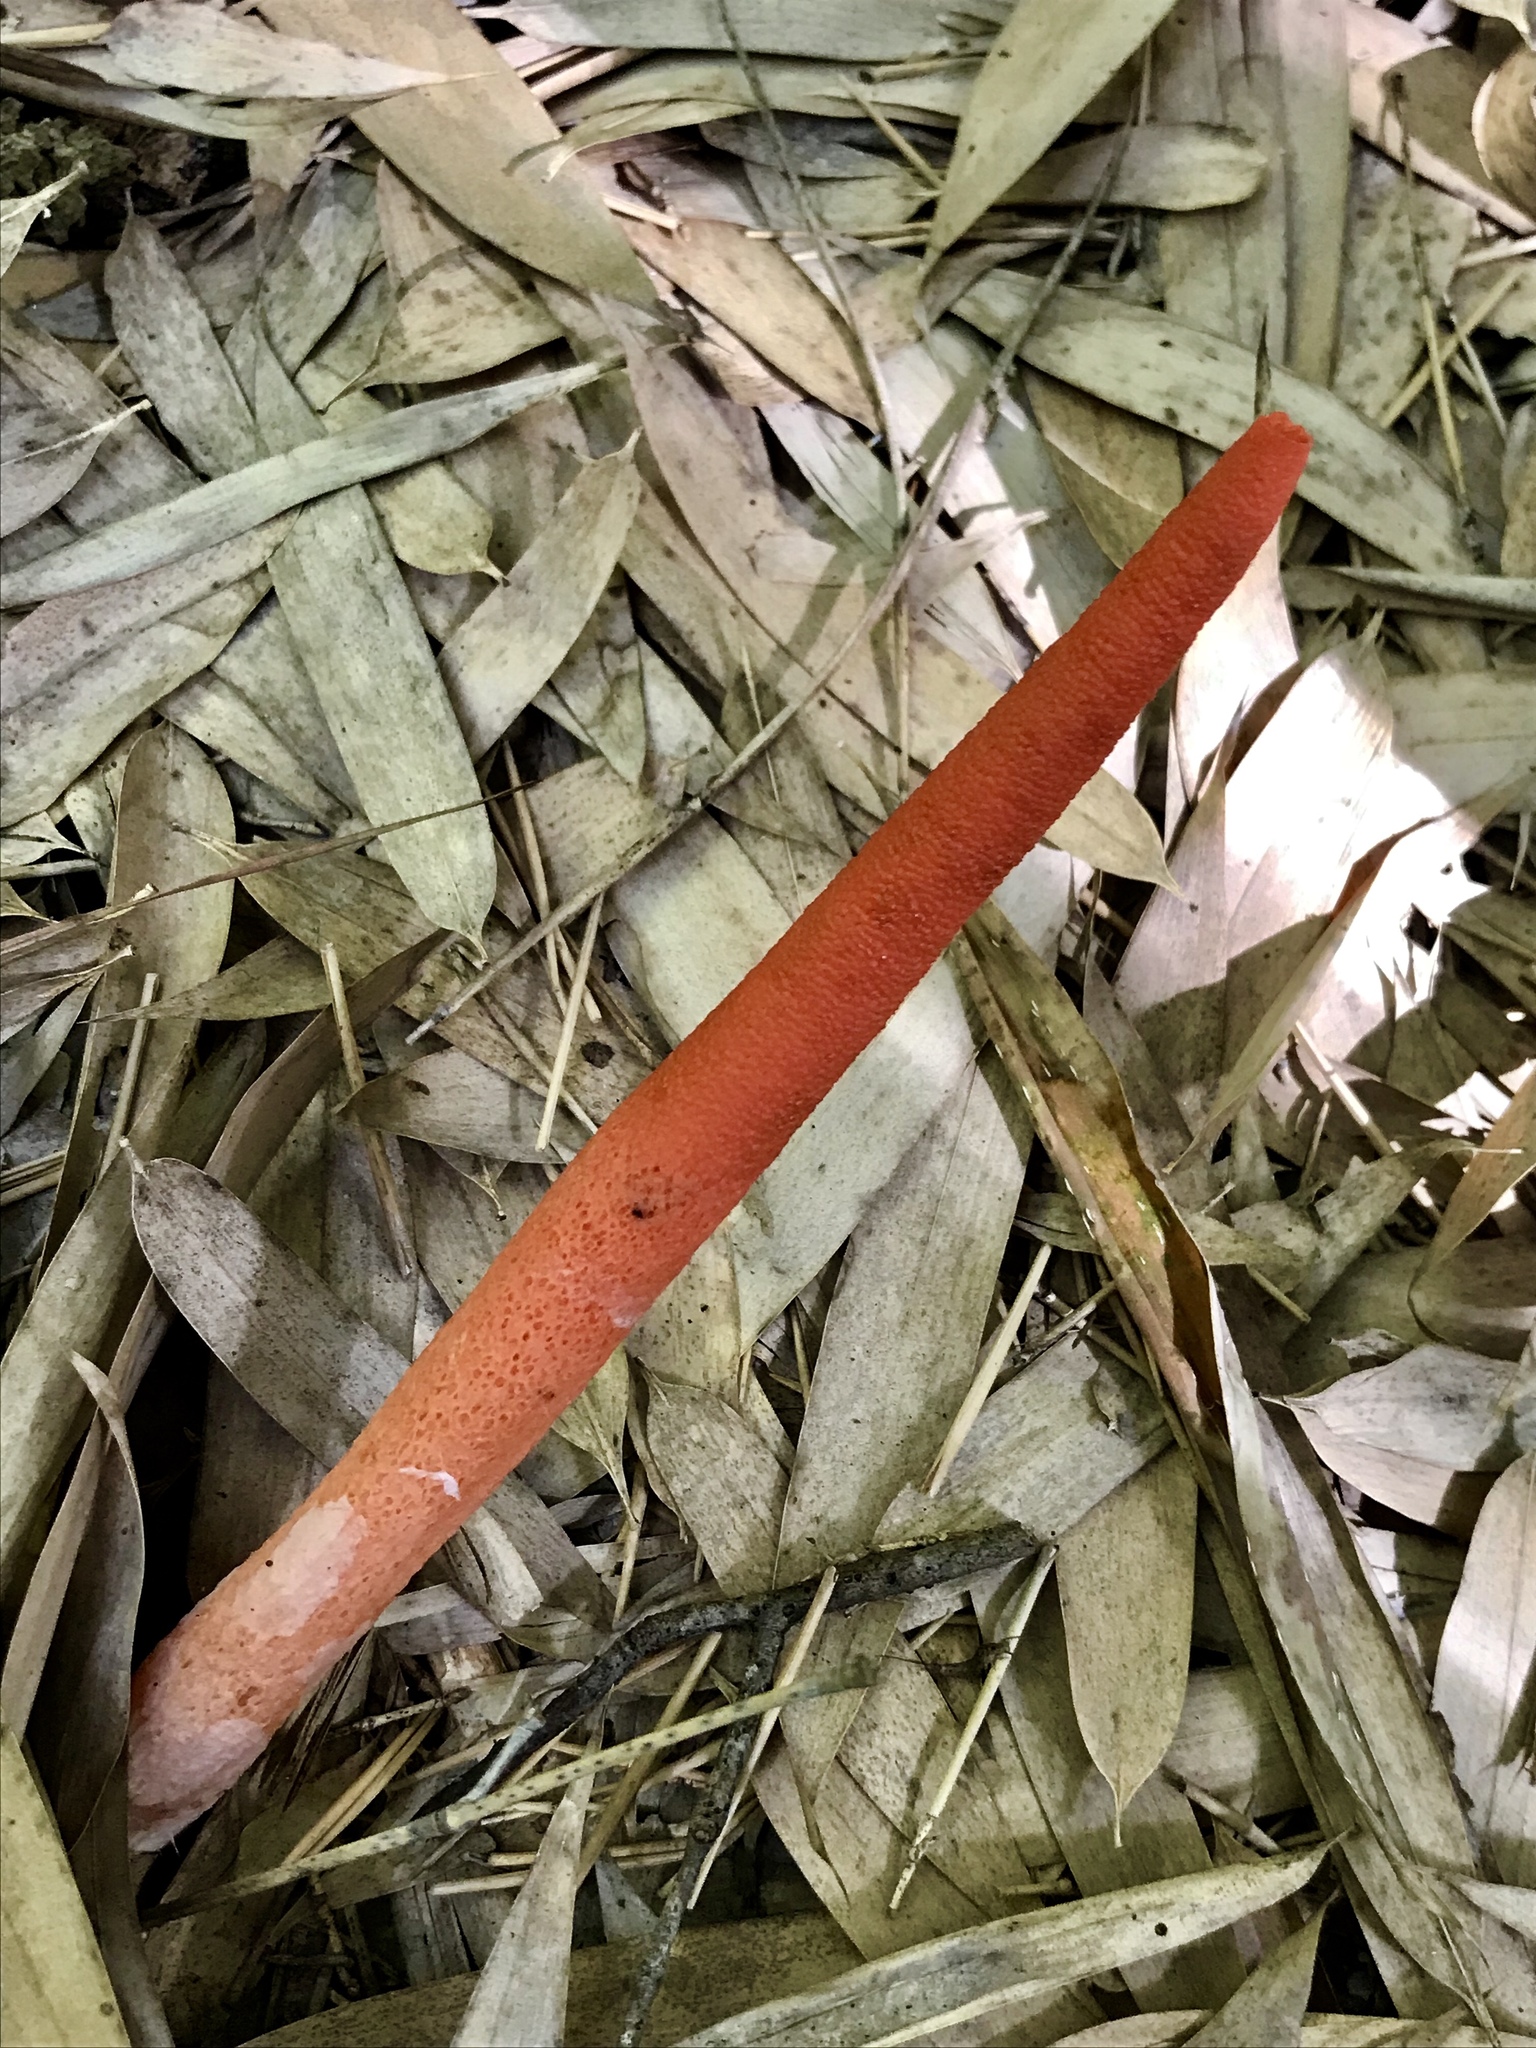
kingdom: Fungi
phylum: Basidiomycota
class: Agaricomycetes
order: Phallales
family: Phallaceae
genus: Mutinus
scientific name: Mutinus elegans
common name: Devil's dipstick
